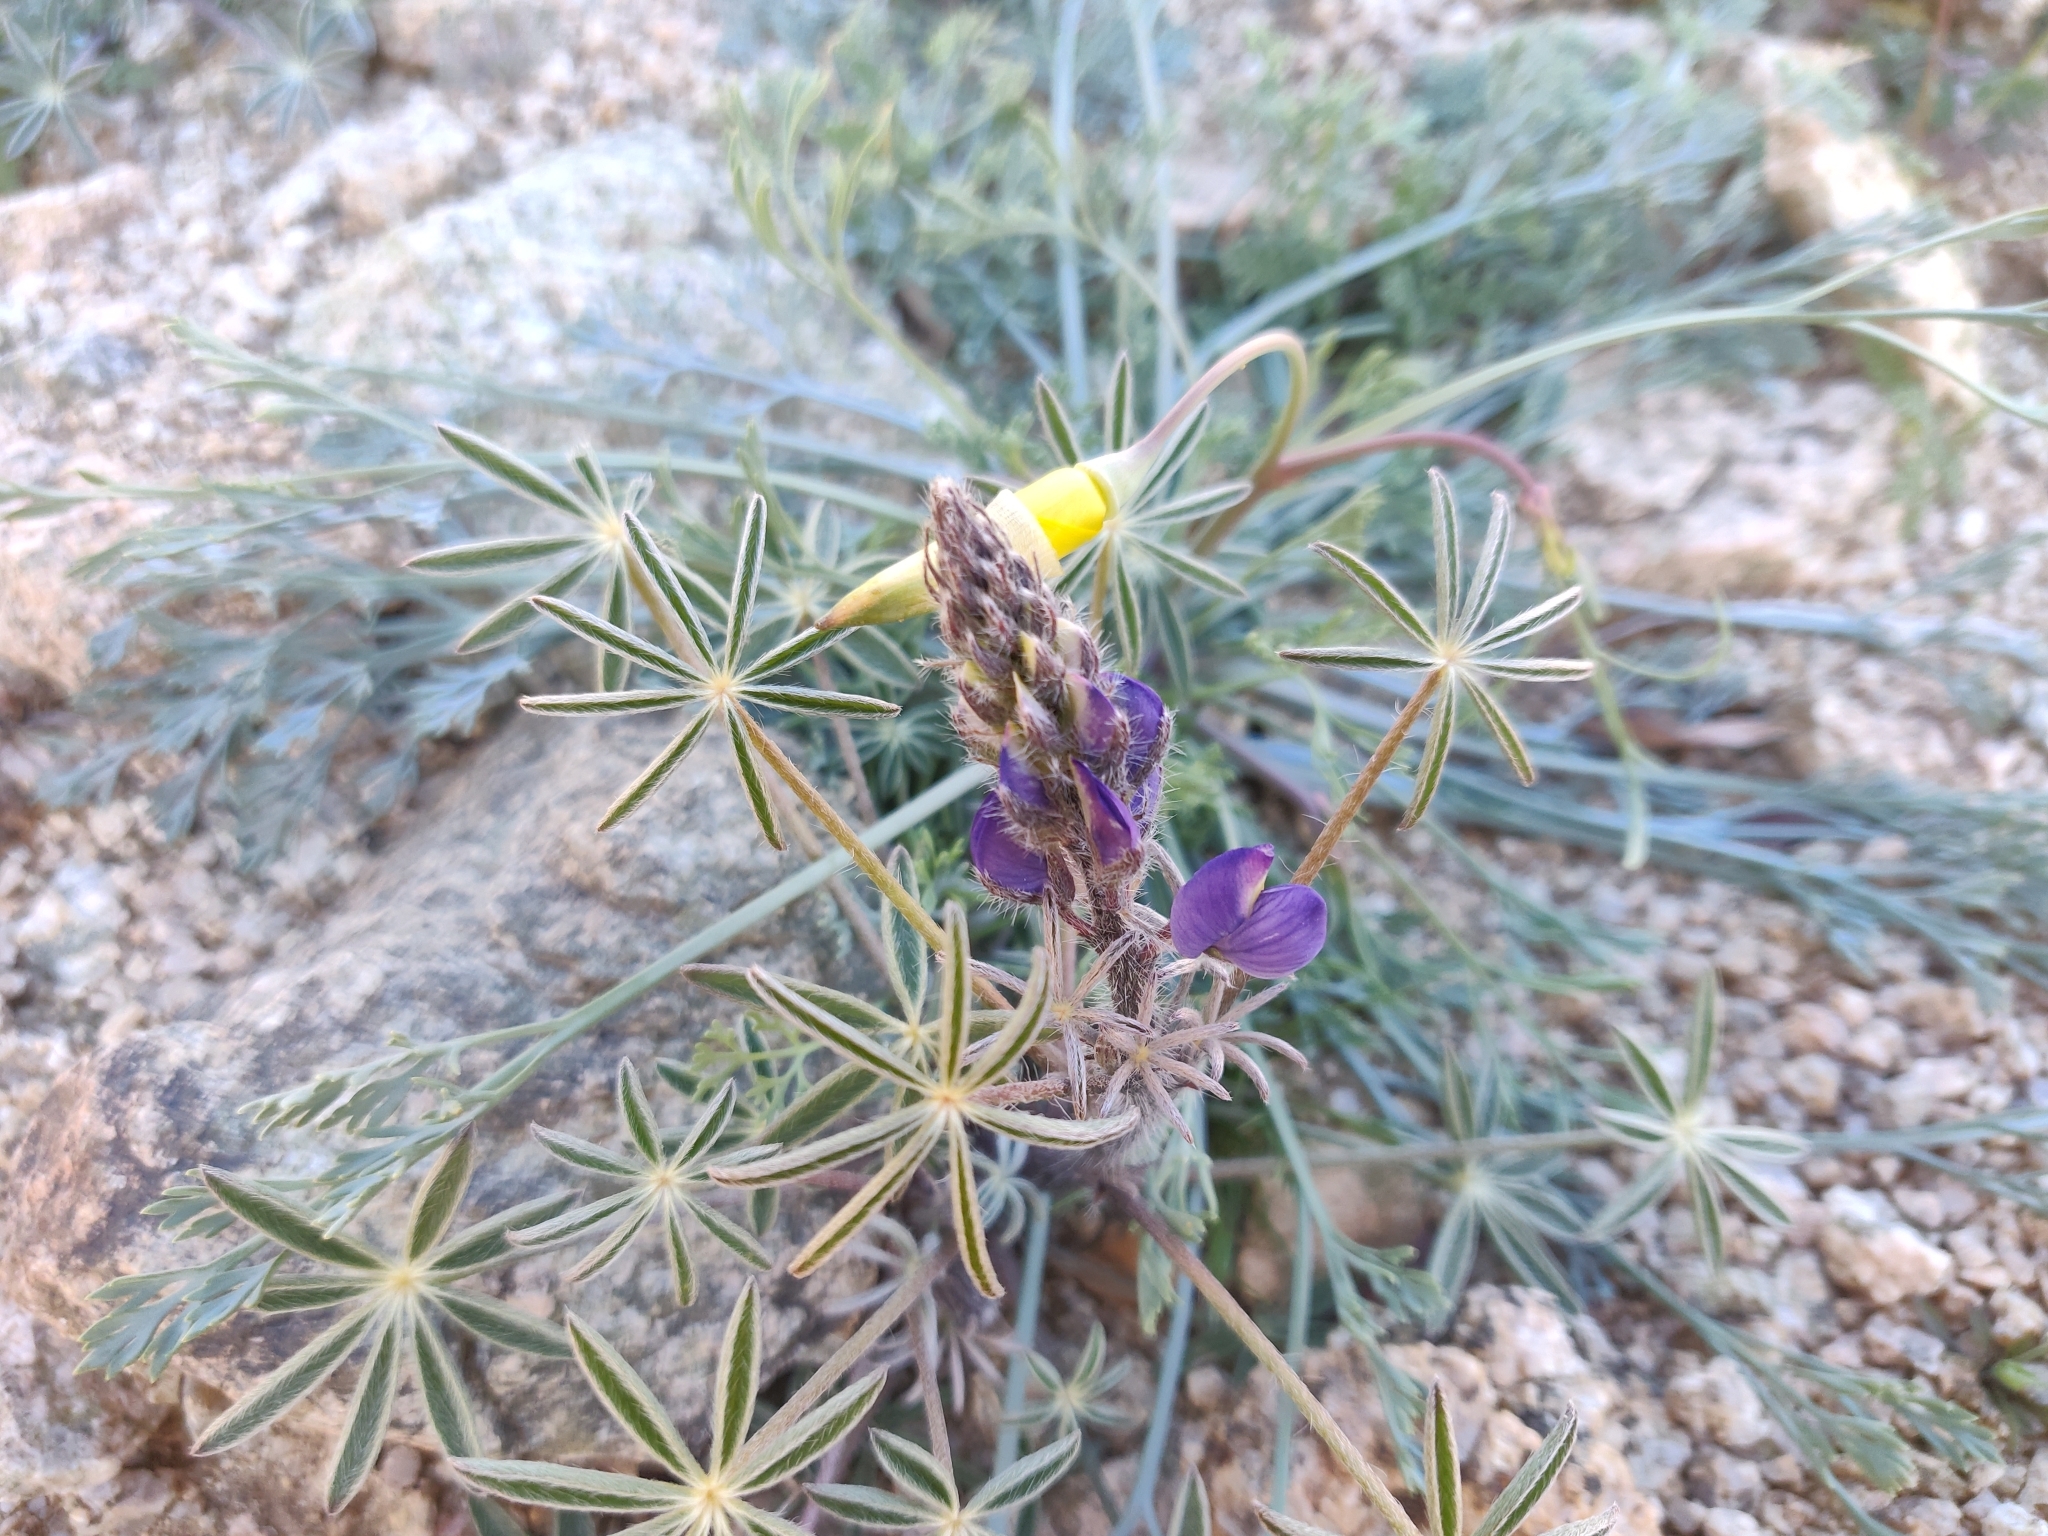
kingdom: Plantae
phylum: Tracheophyta
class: Magnoliopsida
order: Fabales
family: Fabaceae
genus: Lupinus
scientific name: Lupinus sparsiflorus
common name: Coulter's lupine
